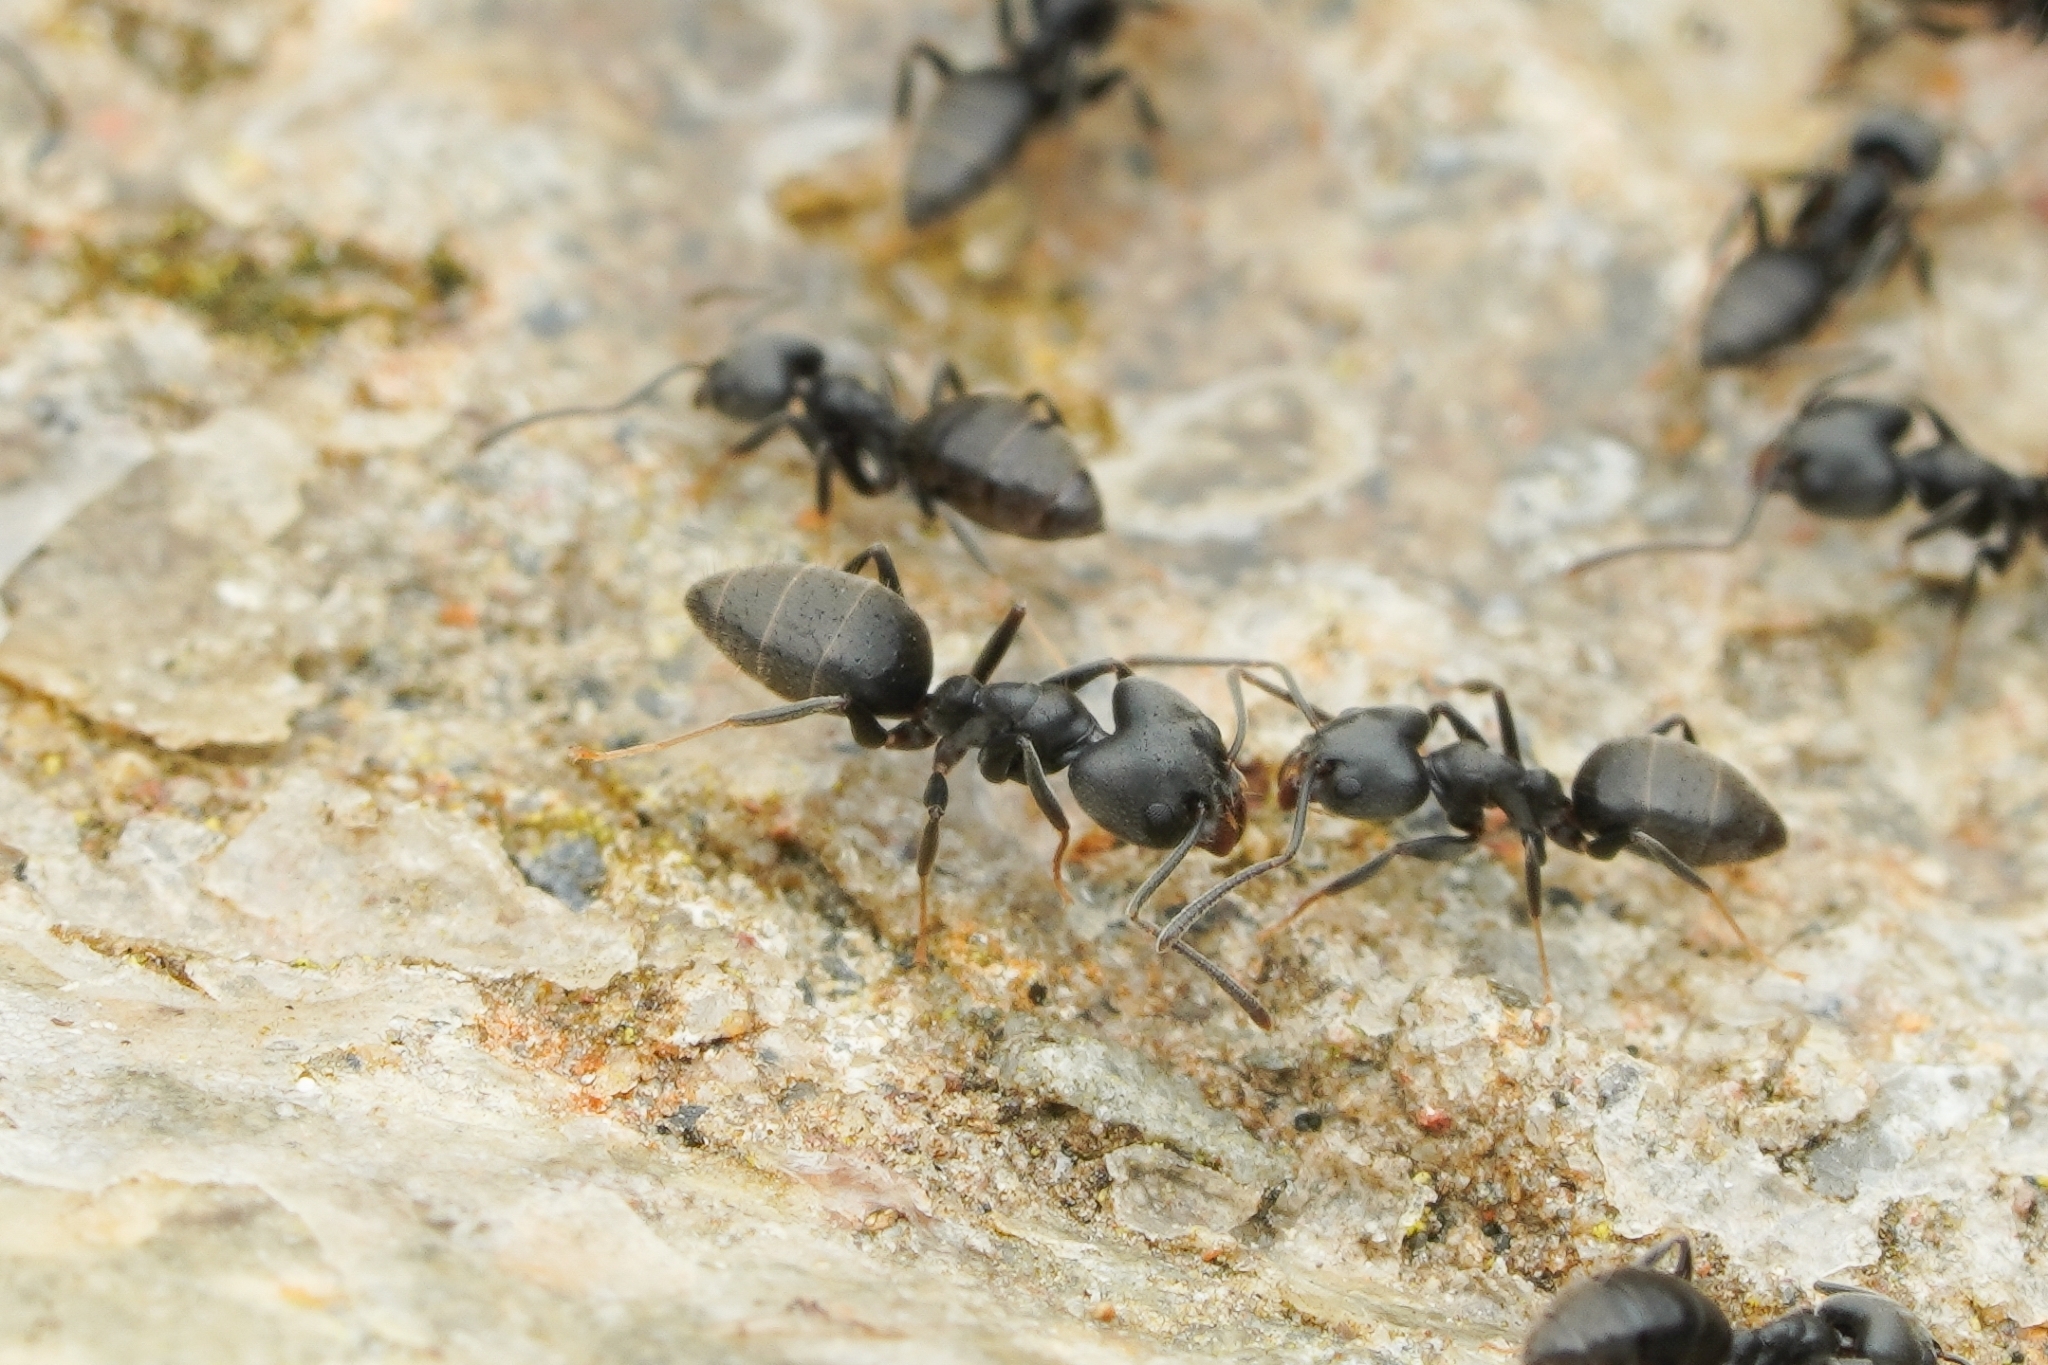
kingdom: Animalia
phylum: Arthropoda
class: Insecta
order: Hymenoptera
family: Formicidae
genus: Technomyrmex
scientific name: Technomyrmex modiglianii
